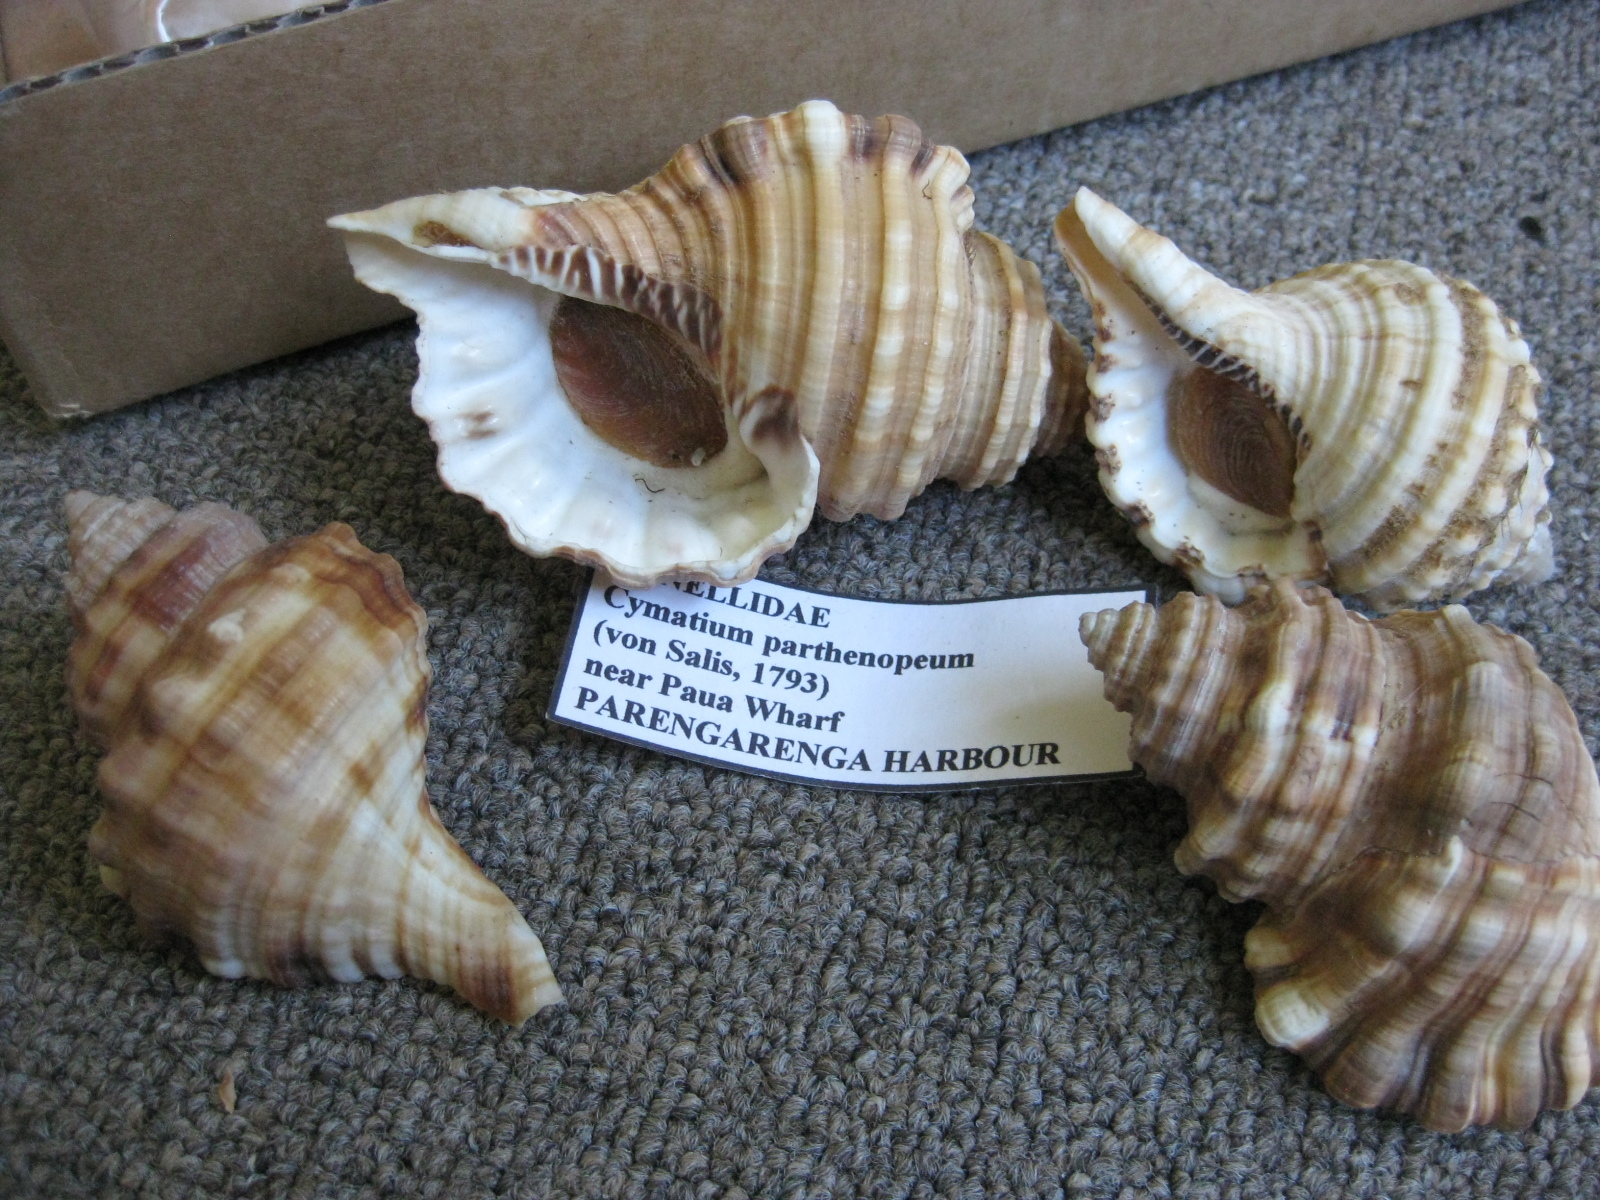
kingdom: Animalia
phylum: Mollusca
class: Gastropoda
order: Littorinimorpha
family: Cymatiidae
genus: Monoplex
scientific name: Monoplex parthenopeus
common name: Giant triton
